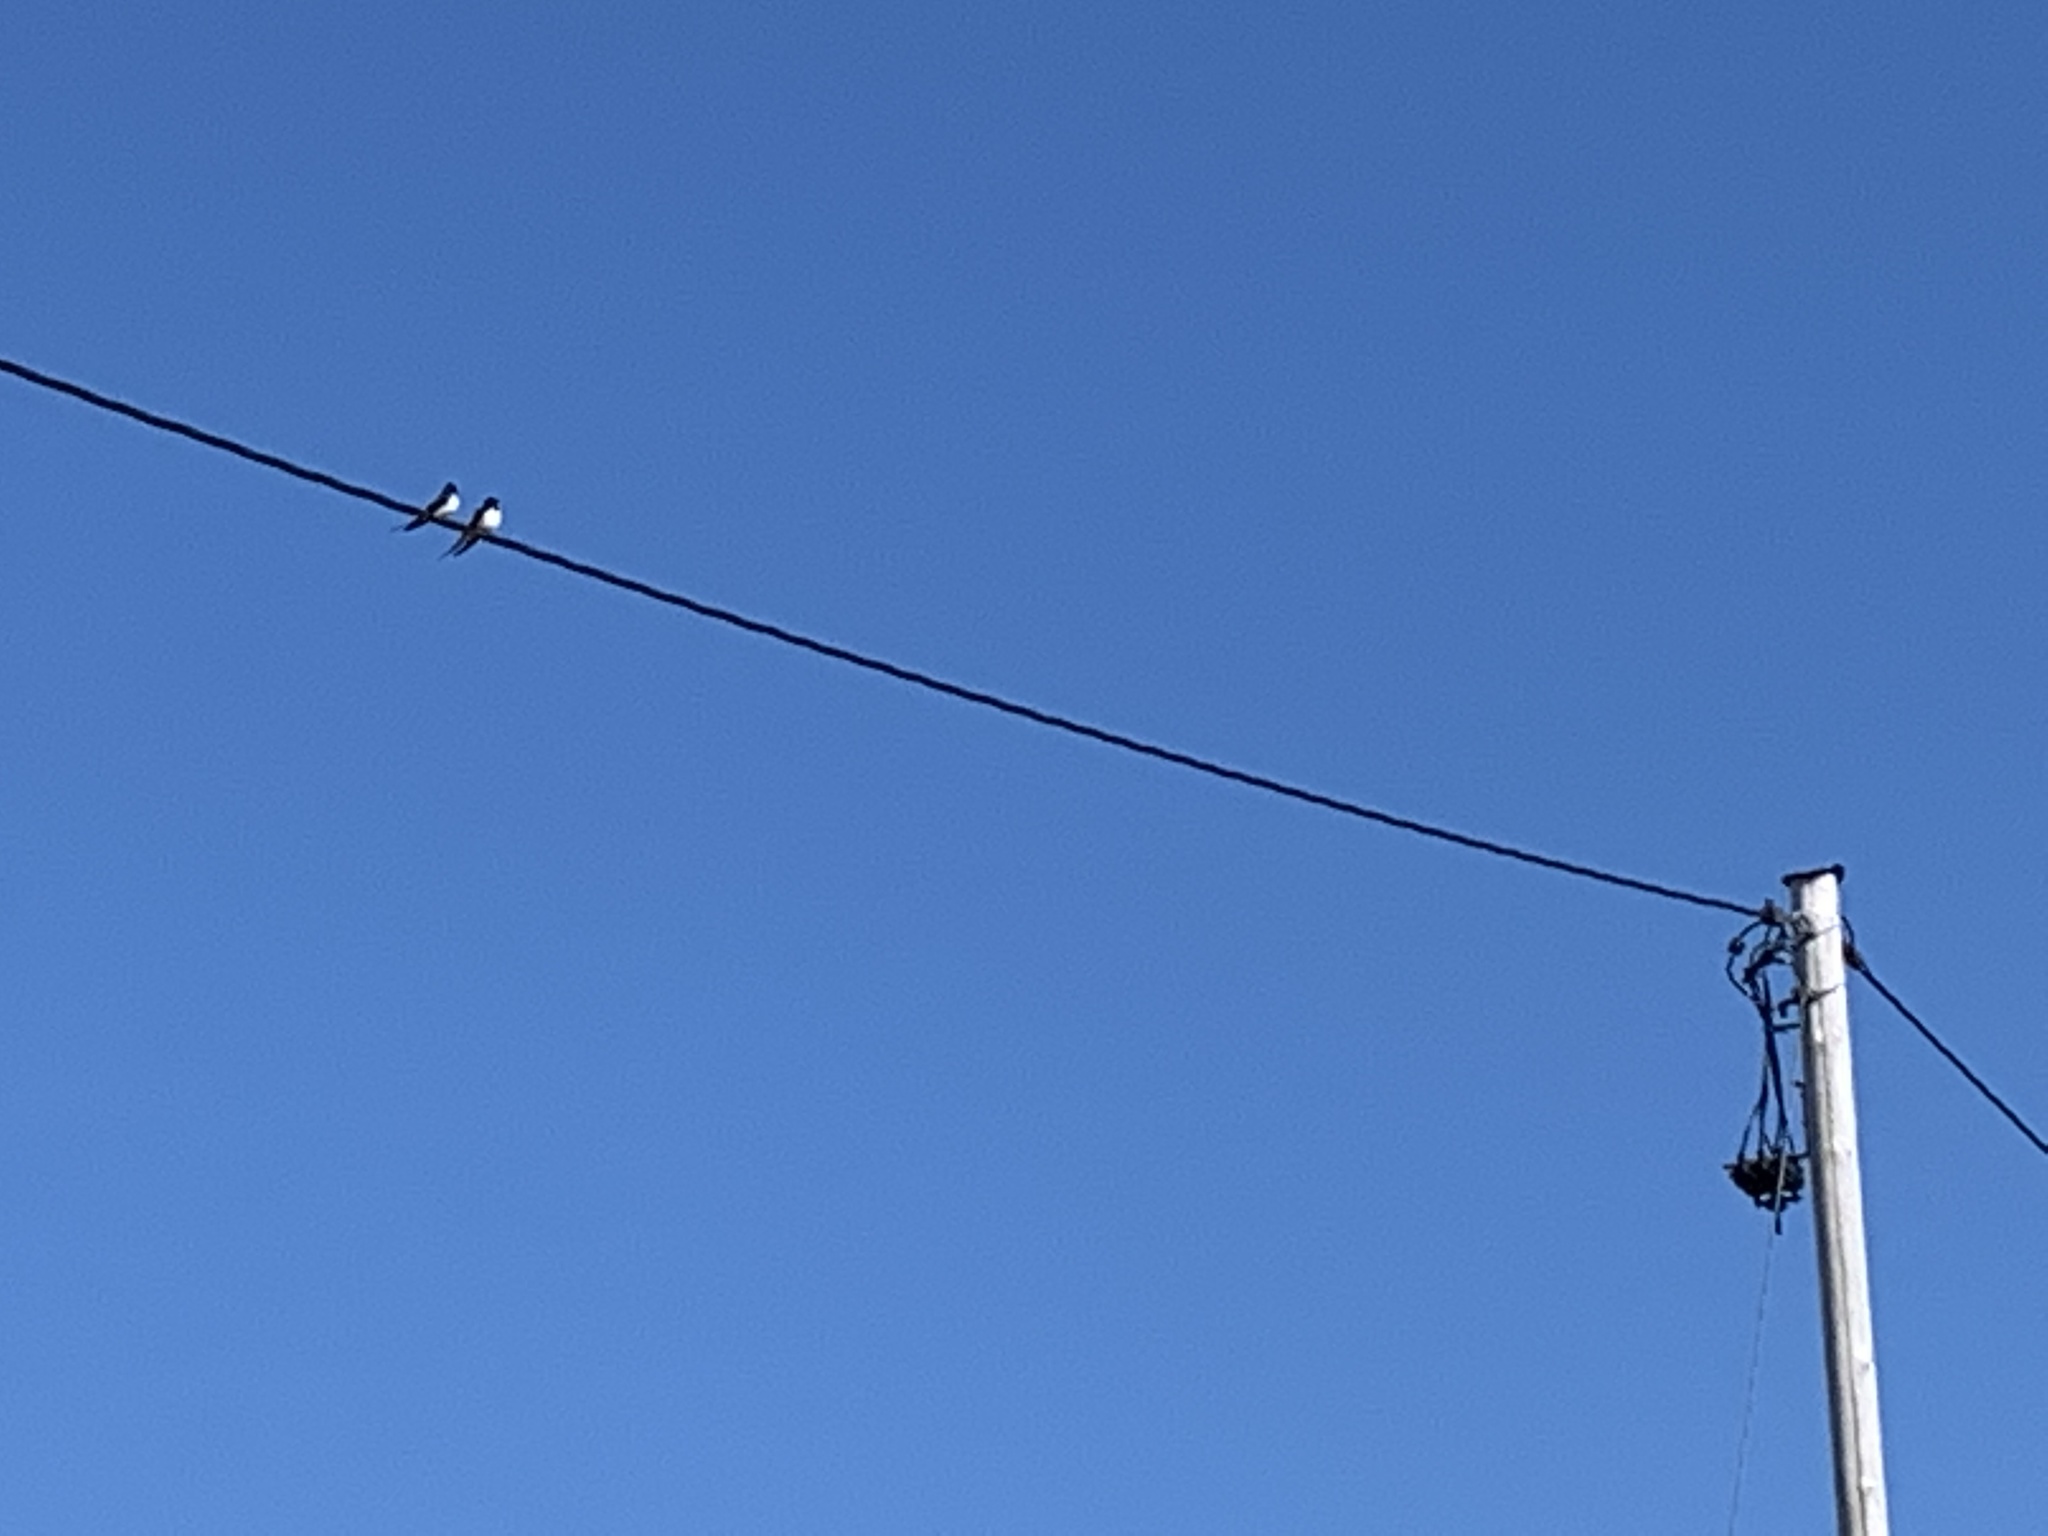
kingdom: Animalia
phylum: Chordata
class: Aves
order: Passeriformes
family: Hirundinidae
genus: Hirundo
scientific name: Hirundo rustica
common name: Barn swallow
